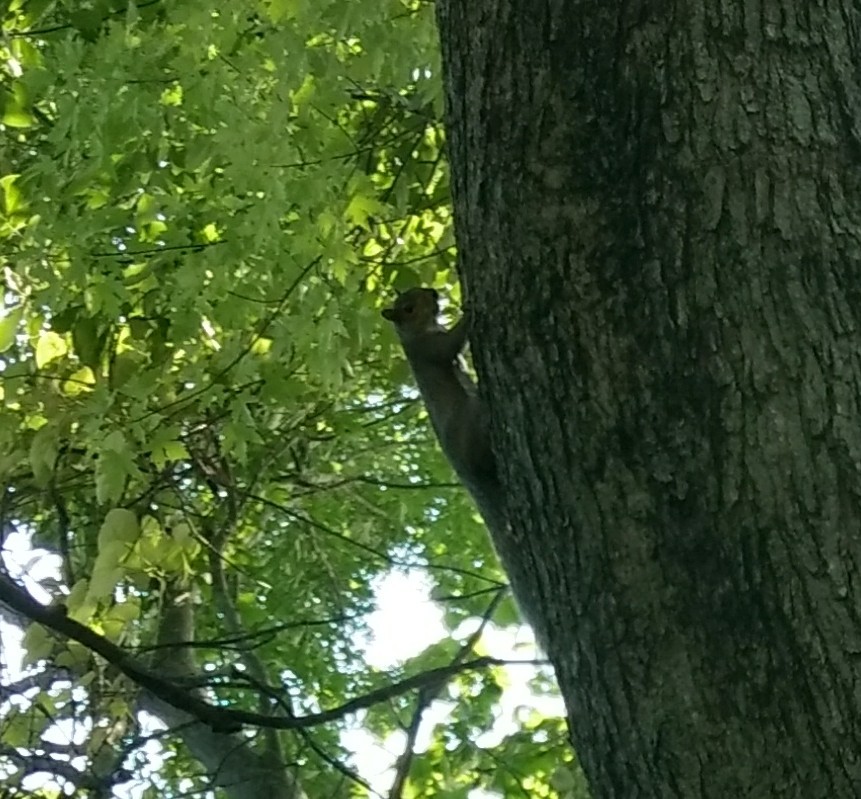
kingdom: Animalia
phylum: Chordata
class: Mammalia
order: Rodentia
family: Sciuridae
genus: Sciurus
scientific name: Sciurus carolinensis
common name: Eastern gray squirrel
